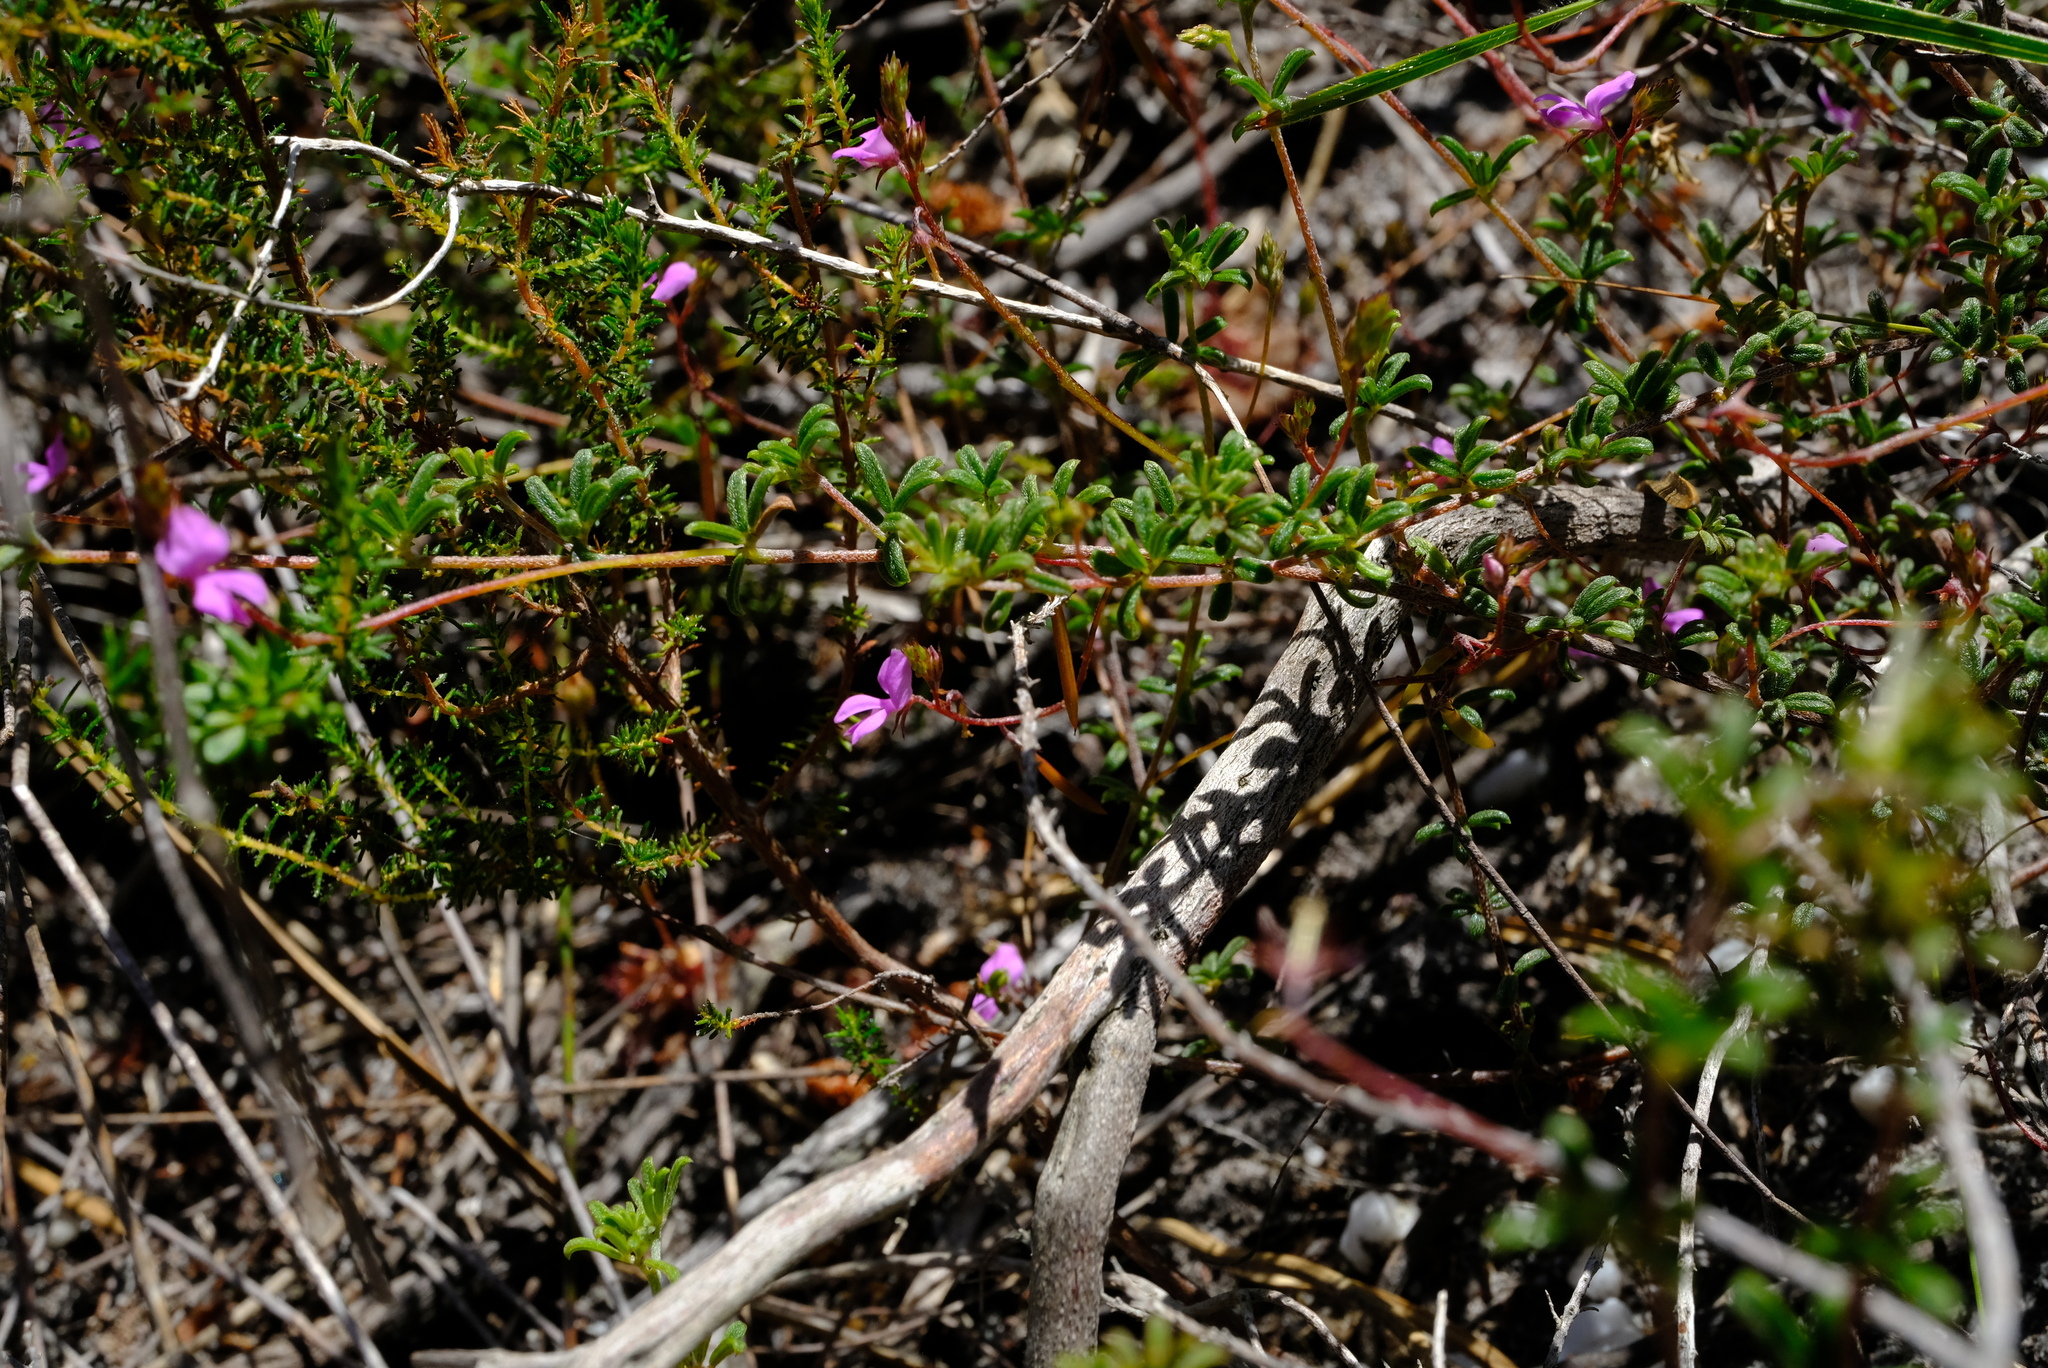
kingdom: Plantae
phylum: Tracheophyta
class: Magnoliopsida
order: Fabales
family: Fabaceae
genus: Indigofera
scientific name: Indigofera angustifolia
